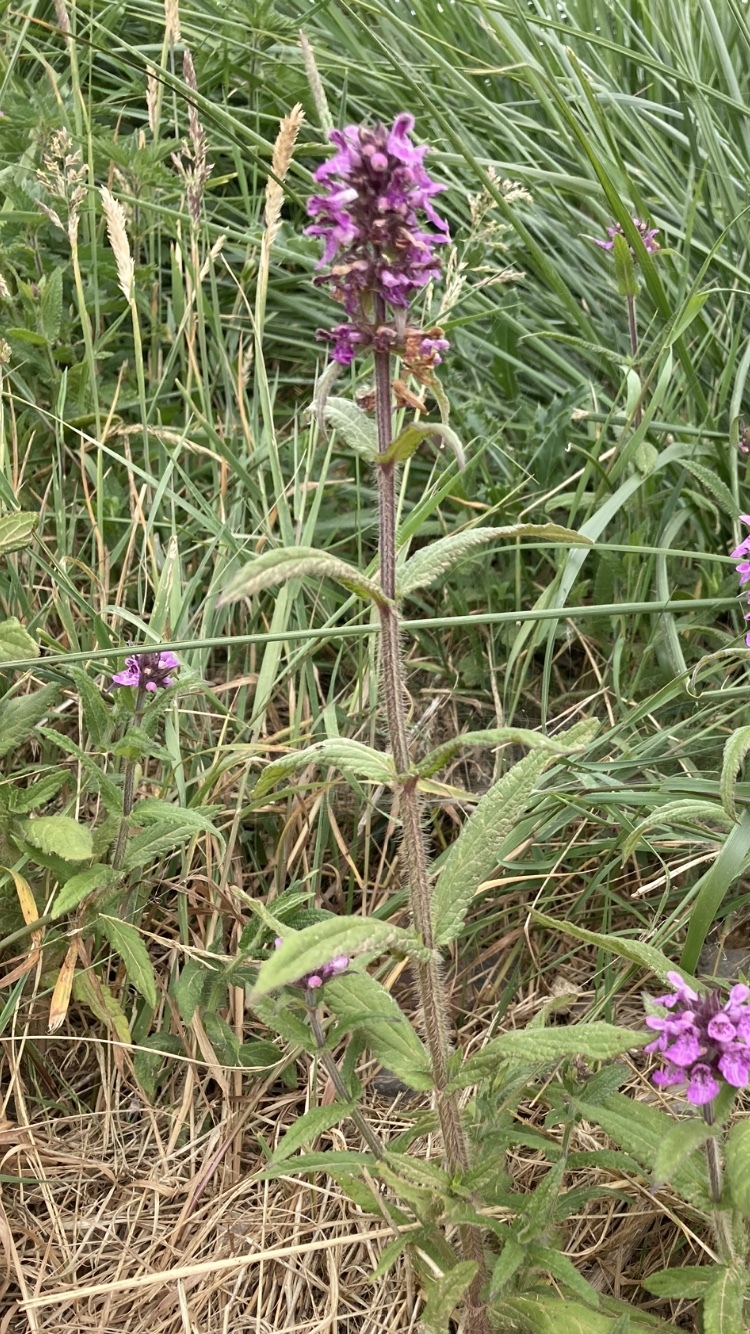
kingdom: Plantae
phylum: Tracheophyta
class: Magnoliopsida
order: Lamiales
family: Lamiaceae
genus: Stachys
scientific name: Stachys palustris
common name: Marsh woundwort
